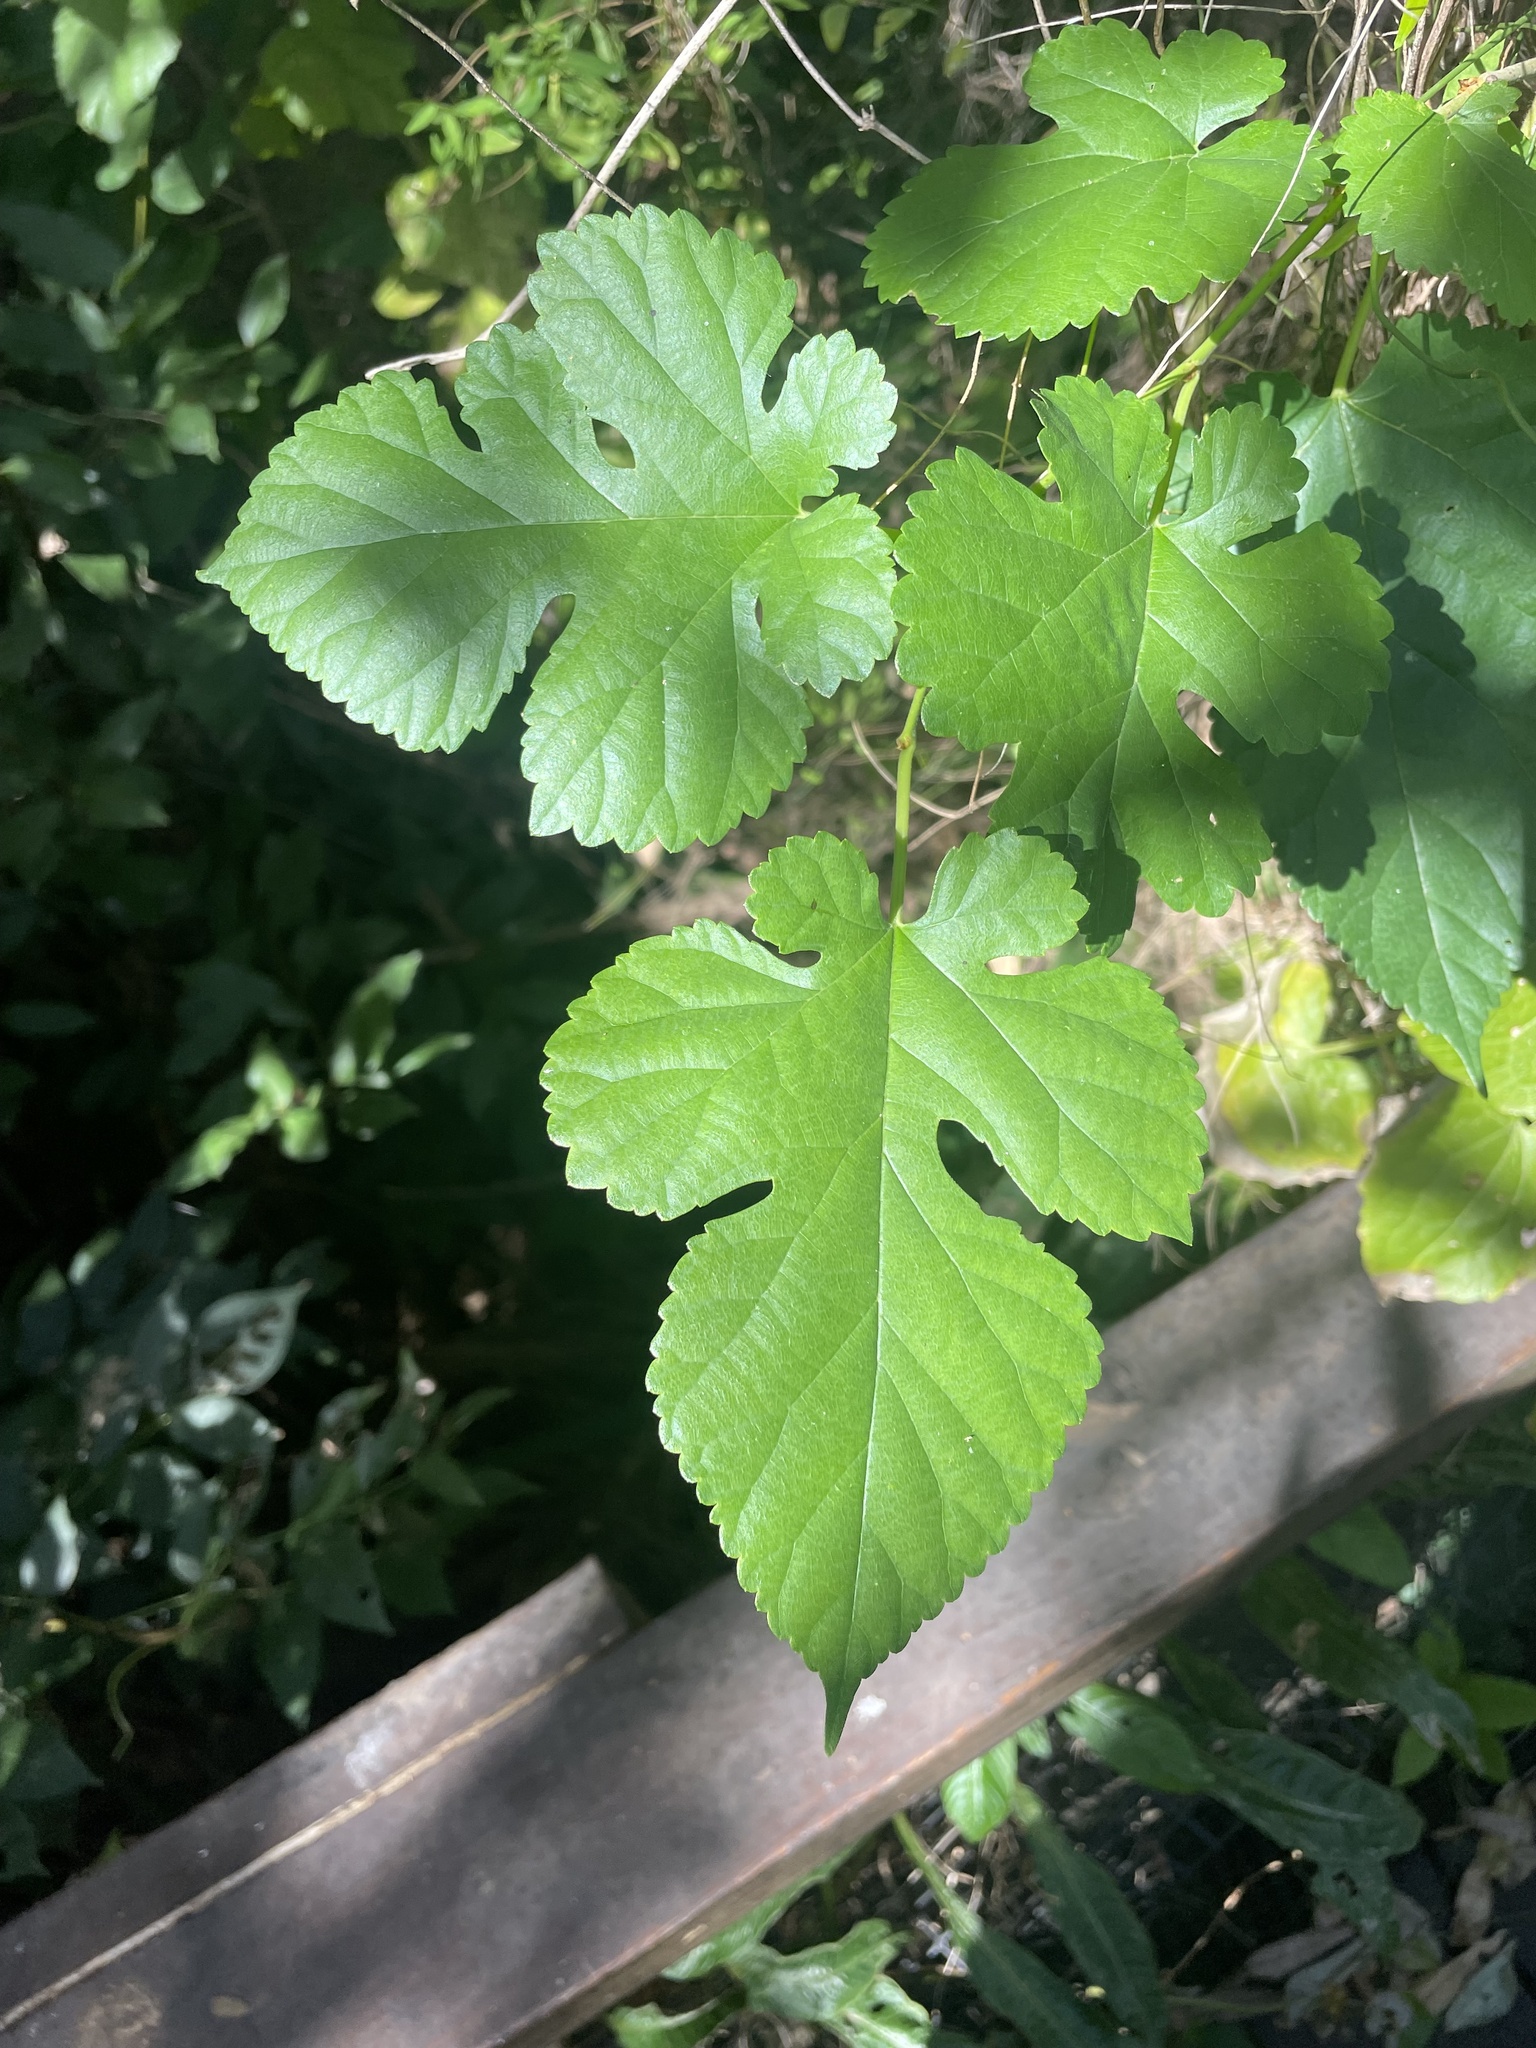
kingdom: Plantae
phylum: Tracheophyta
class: Magnoliopsida
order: Rosales
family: Moraceae
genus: Morus
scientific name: Morus alba
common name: White mulberry
